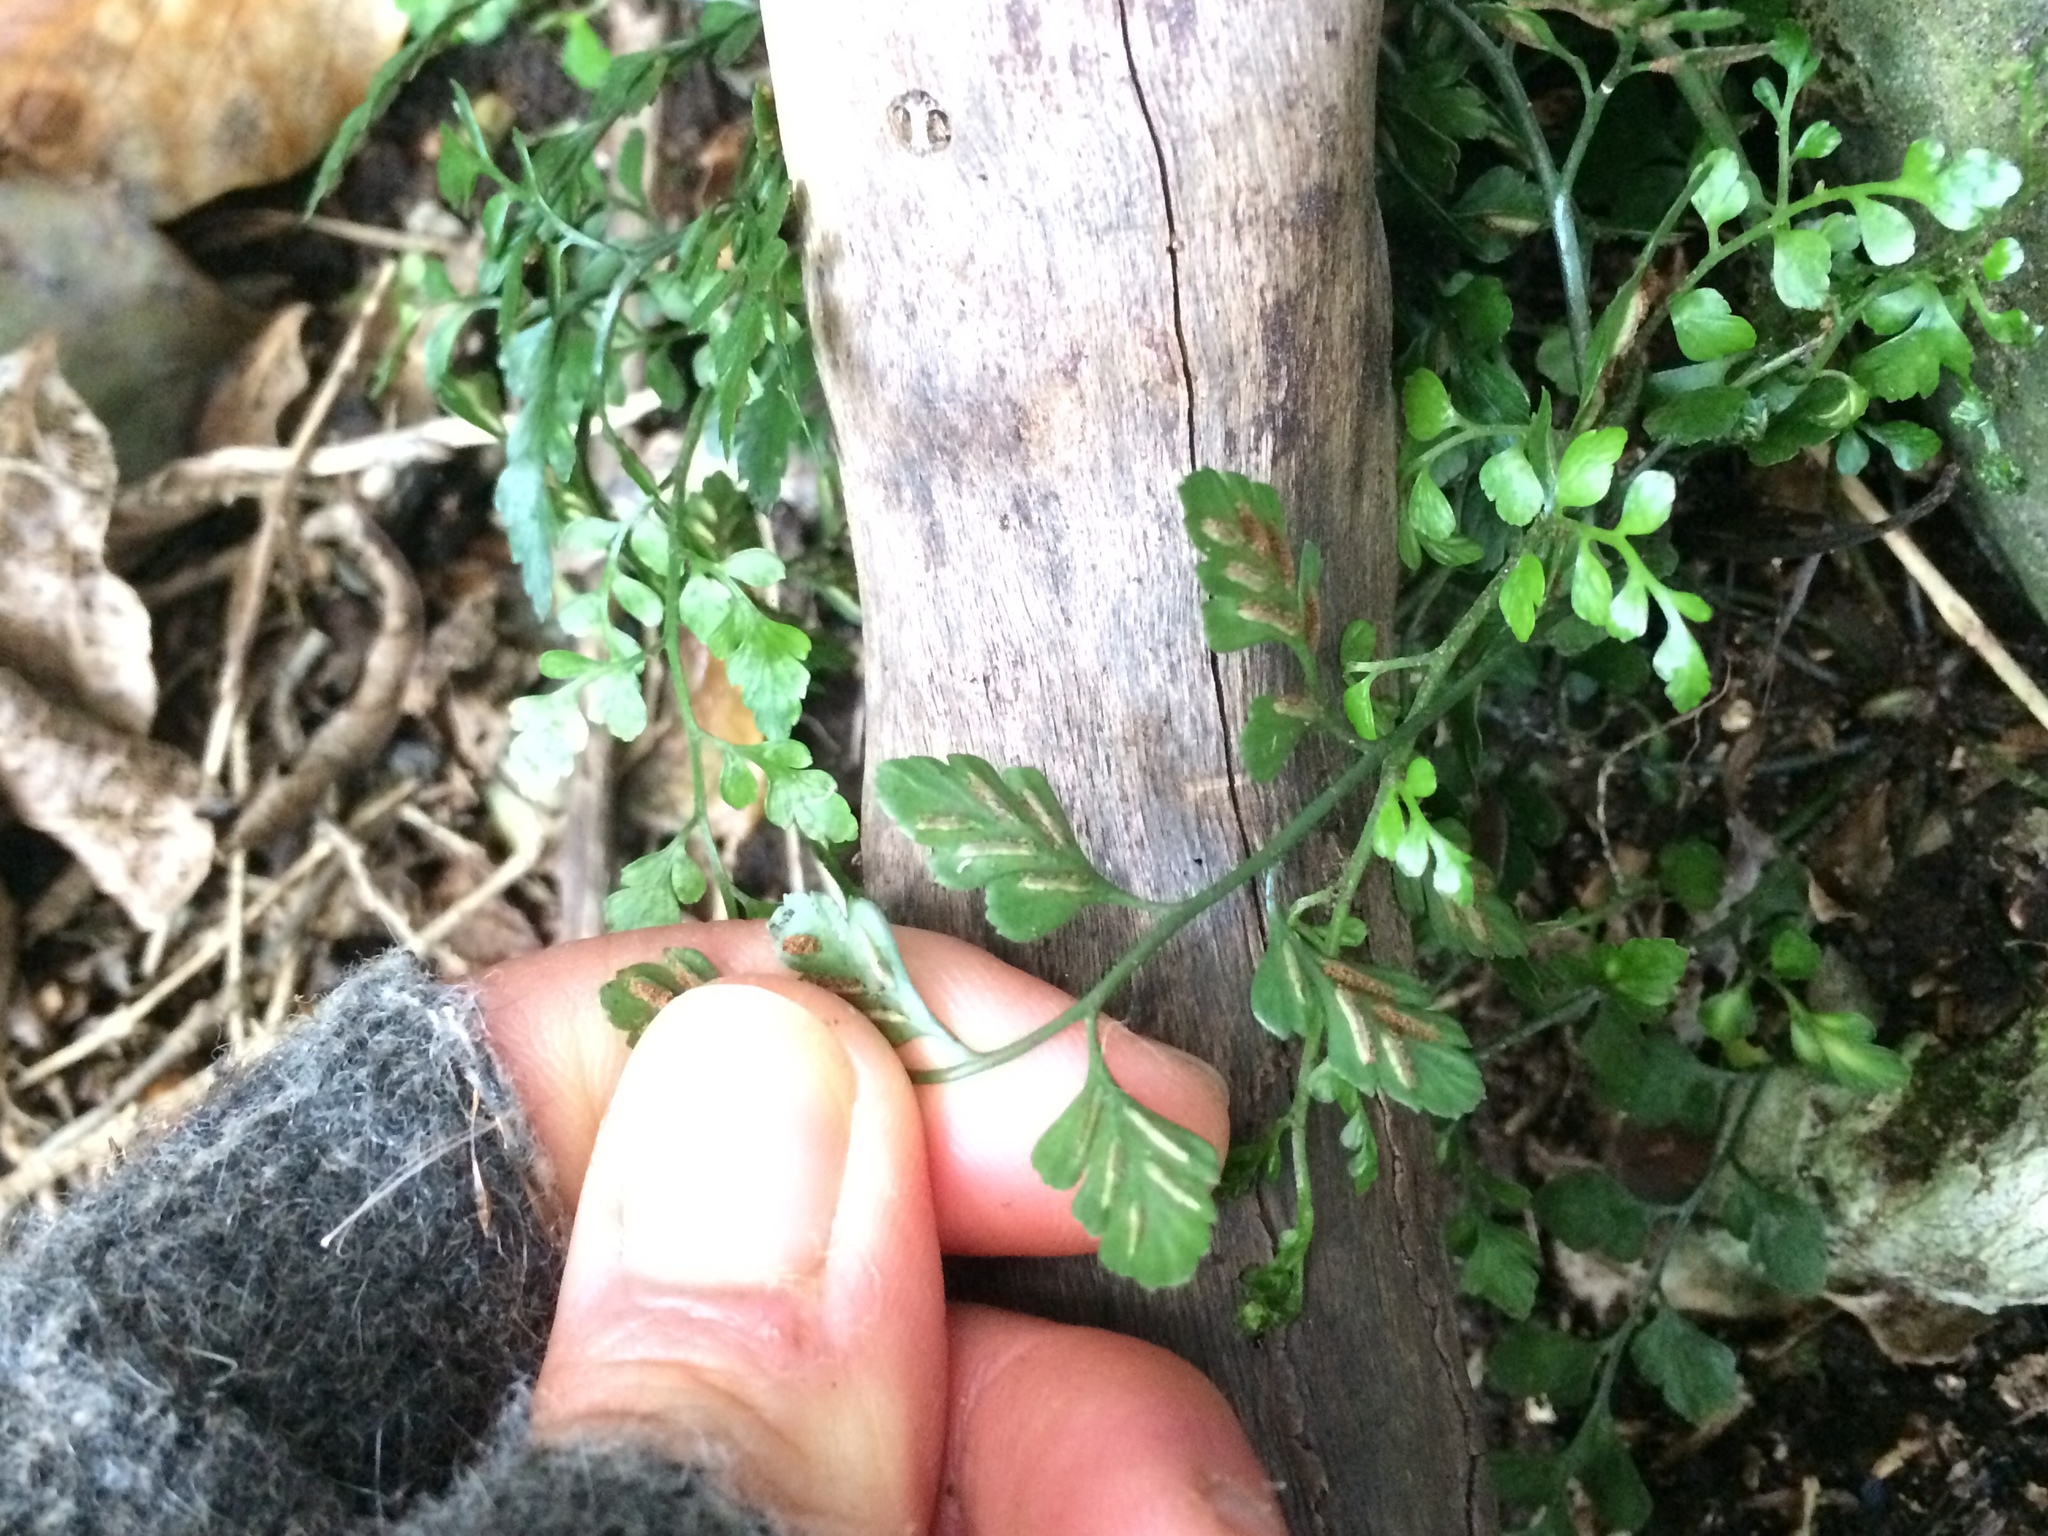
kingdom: Plantae
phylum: Tracheophyta
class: Polypodiopsida
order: Polypodiales
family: Aspleniaceae
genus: Asplenium
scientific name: Asplenium hookerianum
